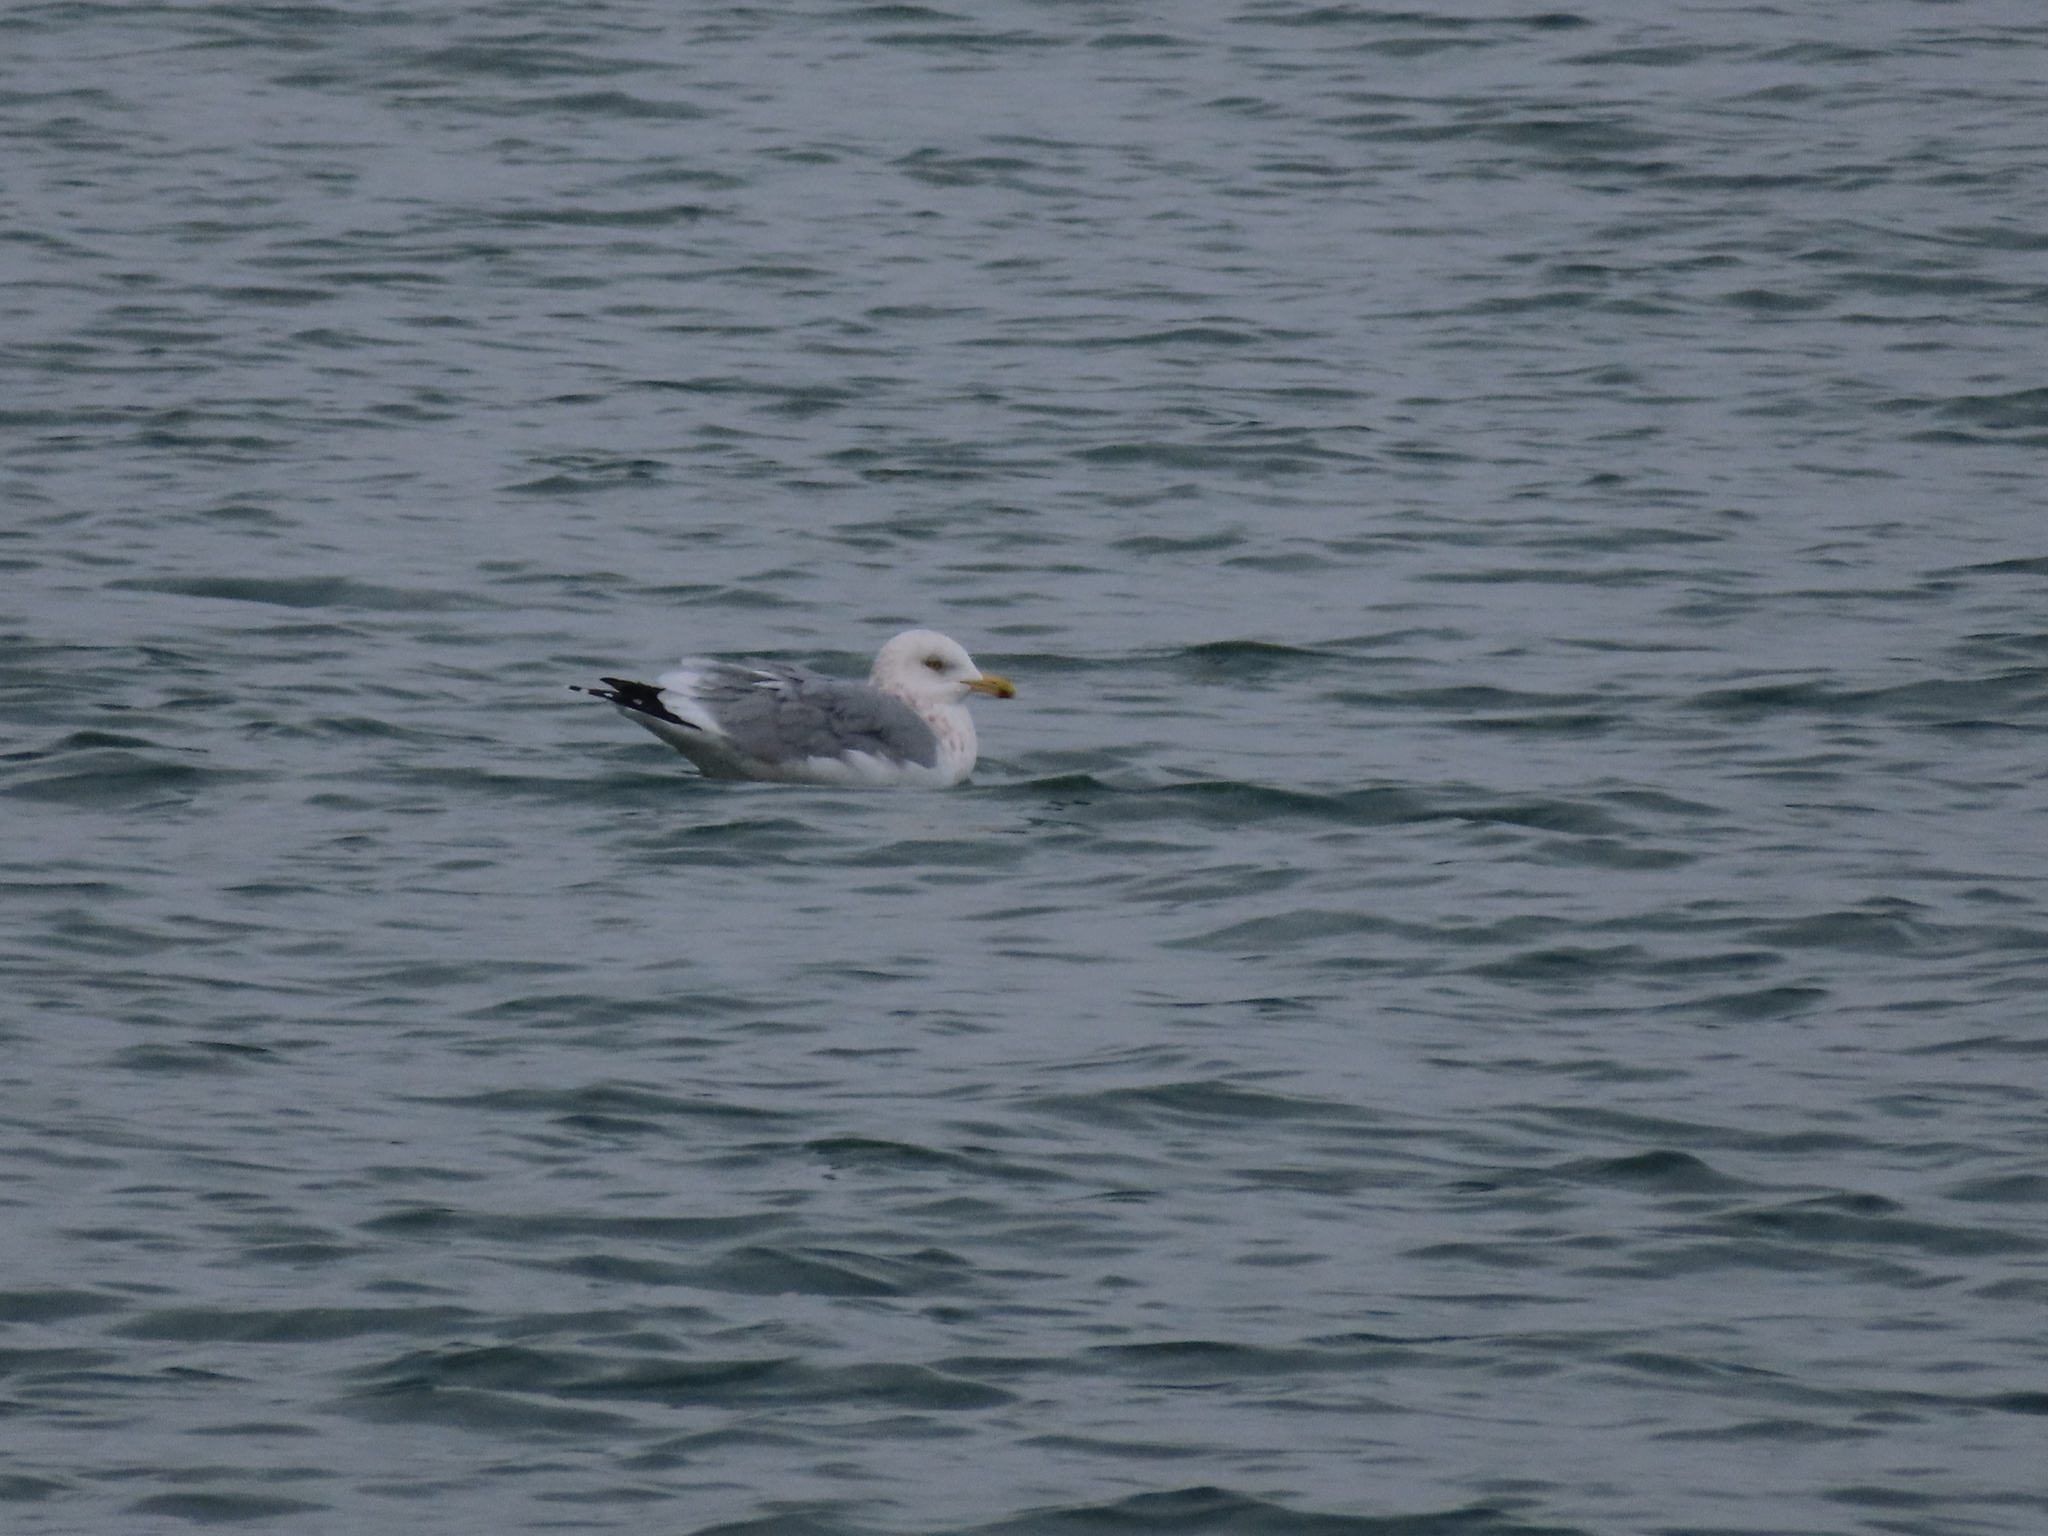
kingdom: Animalia
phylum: Chordata
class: Aves
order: Charadriiformes
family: Laridae
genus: Larus
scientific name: Larus argentatus
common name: Herring gull
